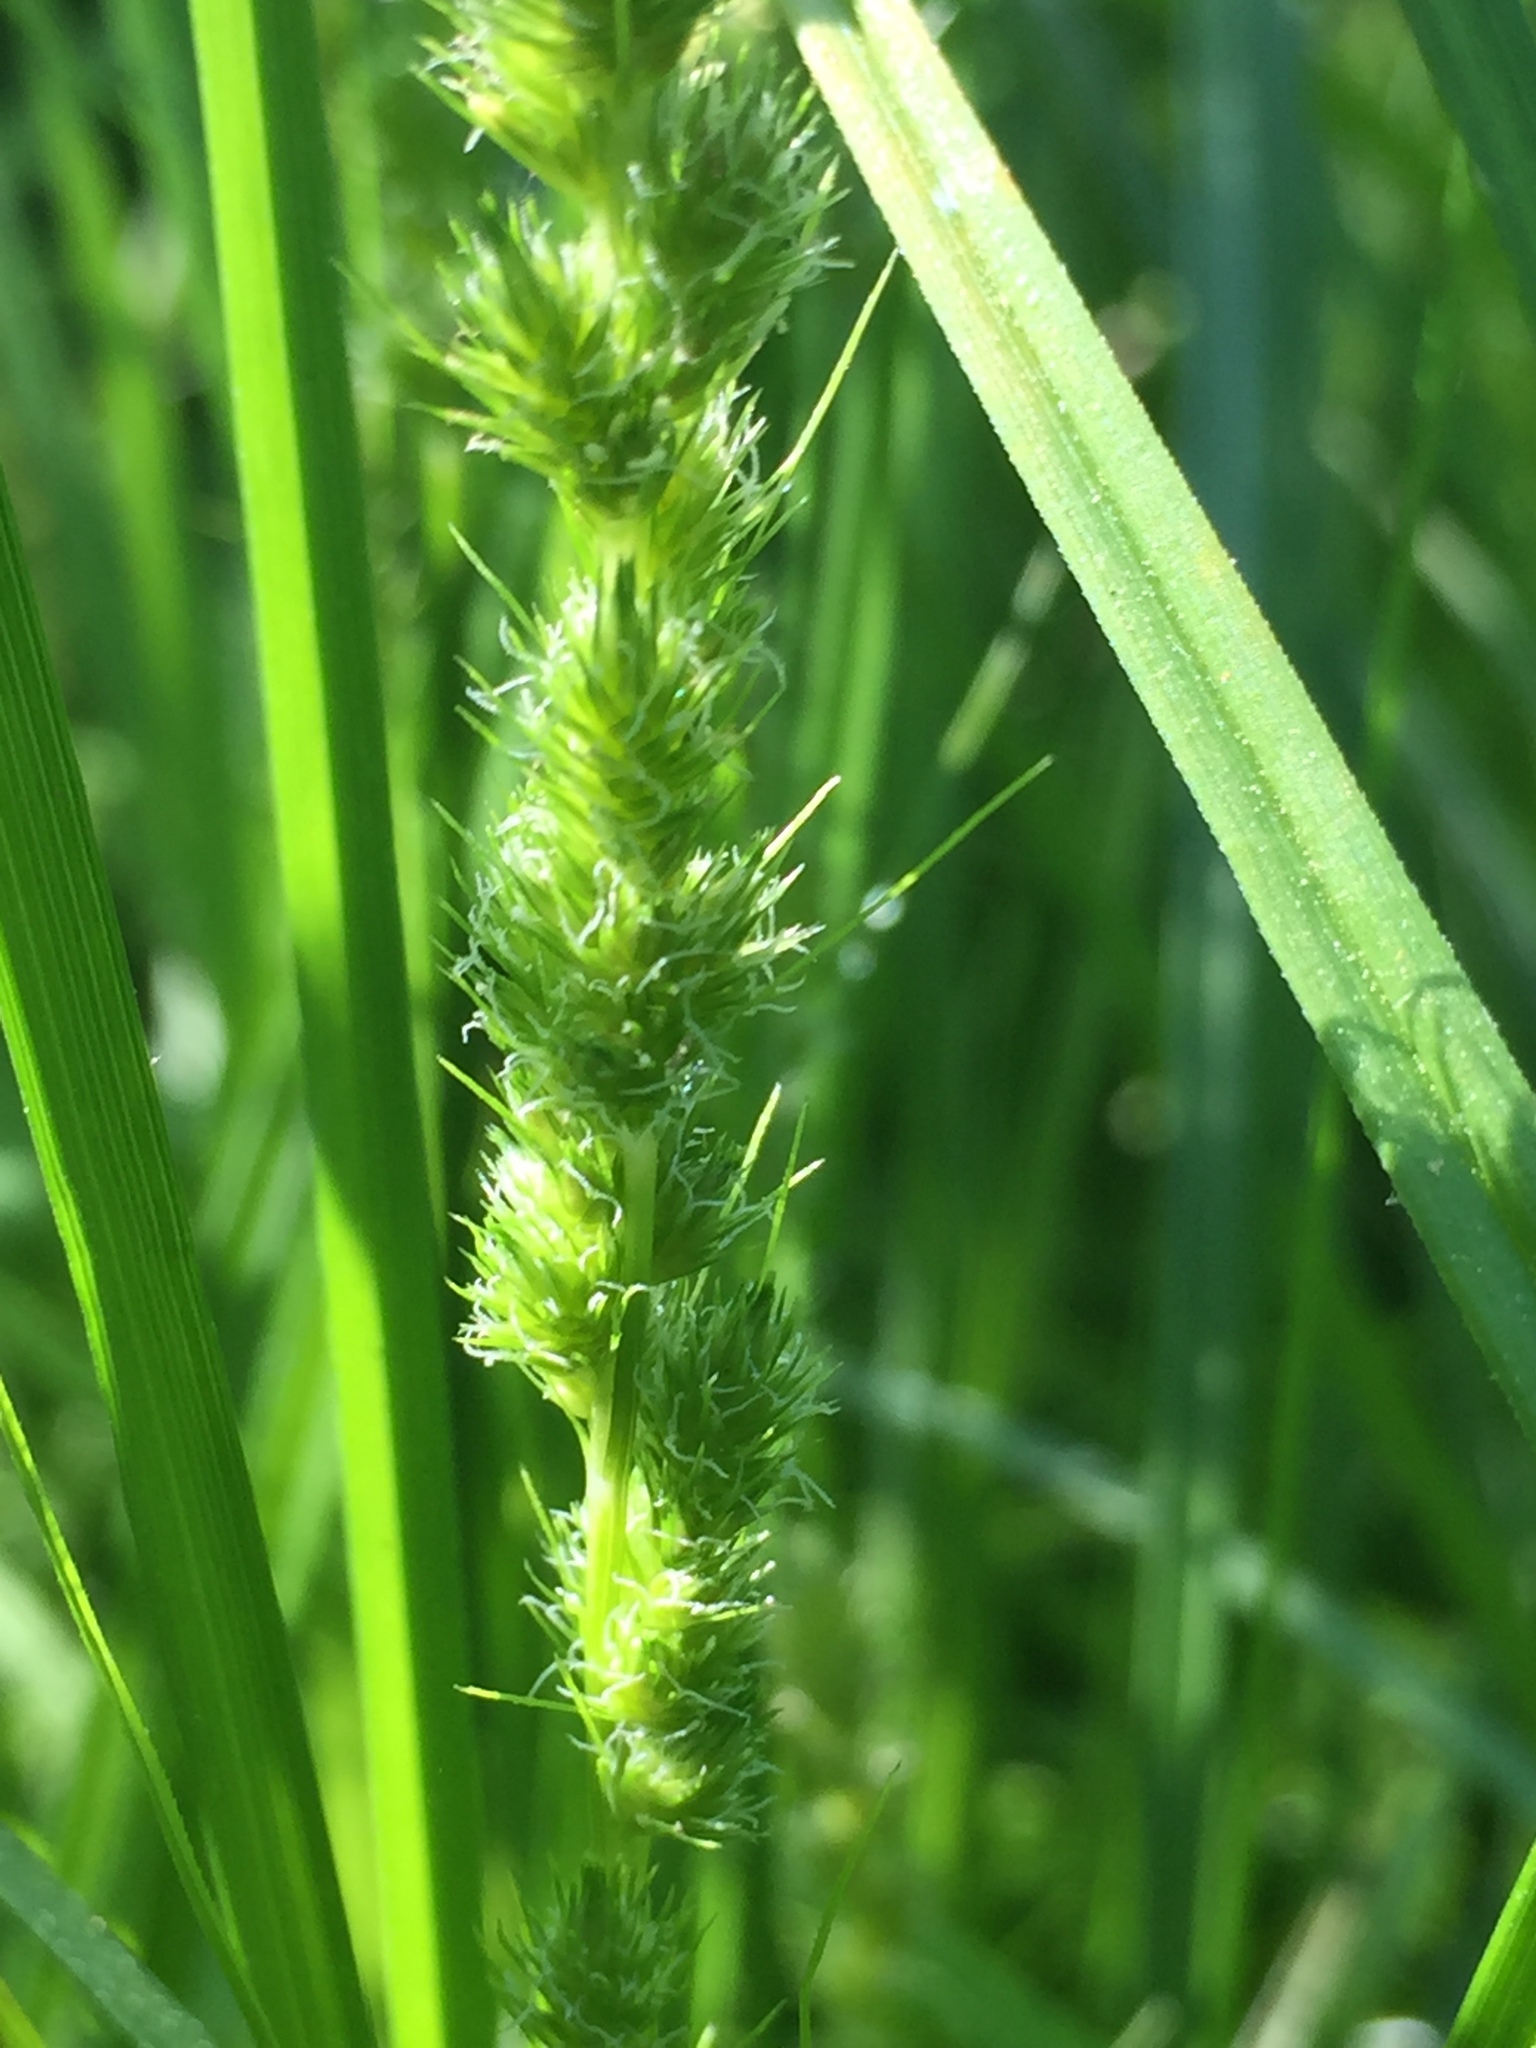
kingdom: Plantae
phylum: Tracheophyta
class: Liliopsida
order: Poales
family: Cyperaceae
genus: Carex
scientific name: Carex vulpinoidea
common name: American fox-sedge
